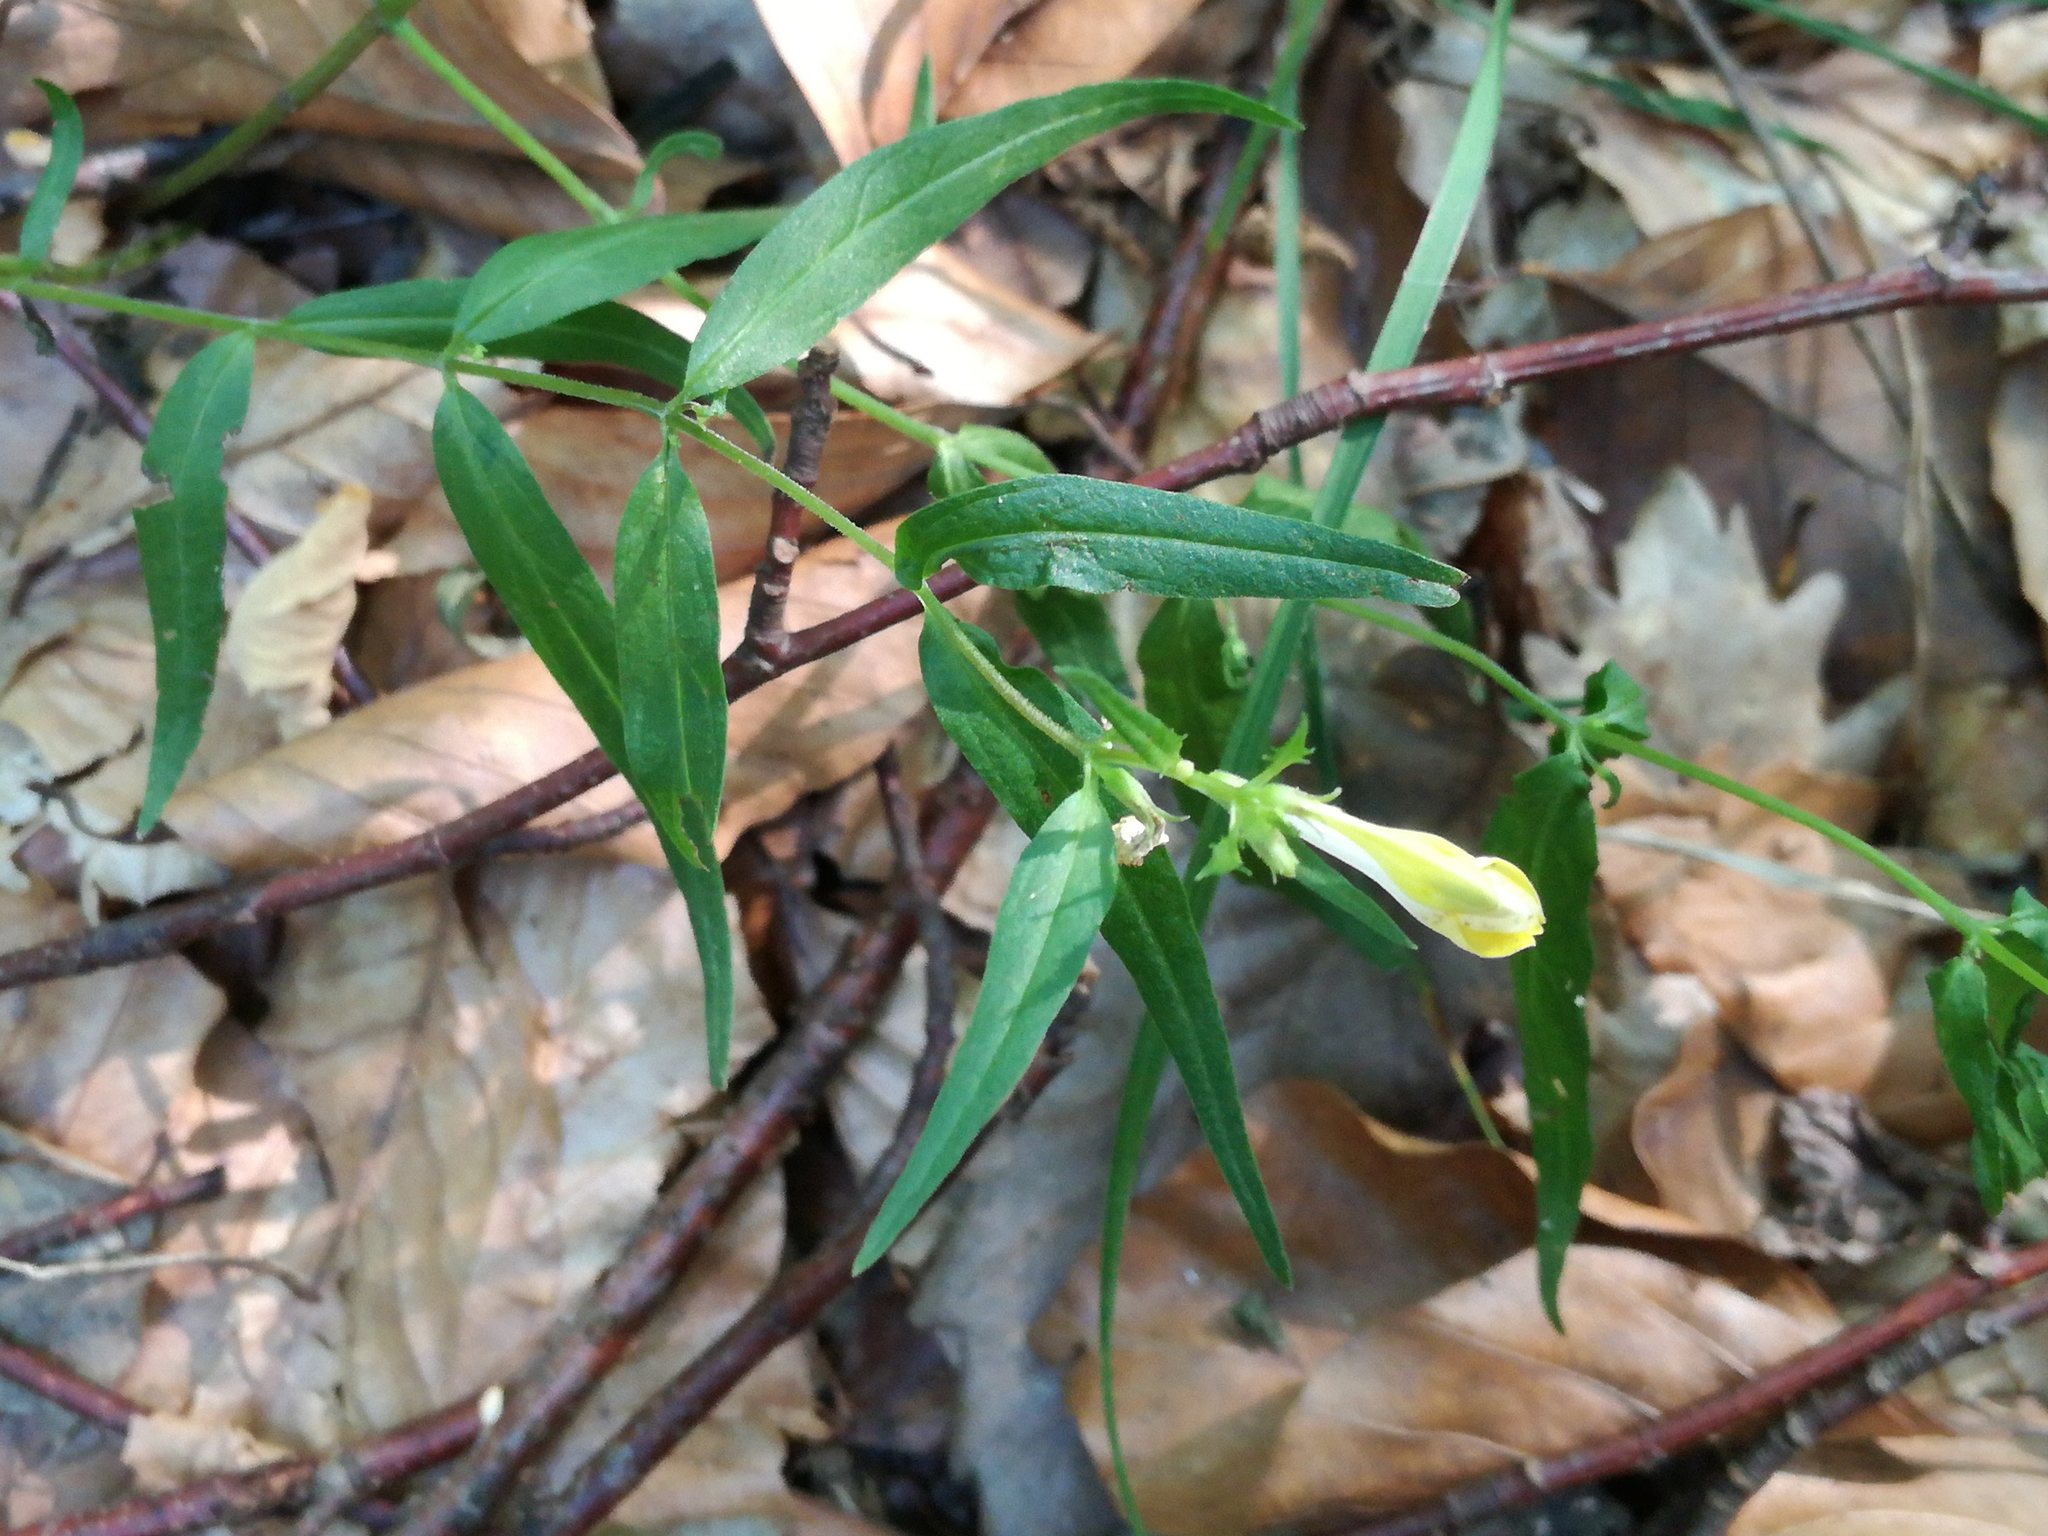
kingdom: Plantae
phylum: Tracheophyta
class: Magnoliopsida
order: Lamiales
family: Orobanchaceae
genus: Melampyrum
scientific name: Melampyrum pratense
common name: Common cow-wheat
